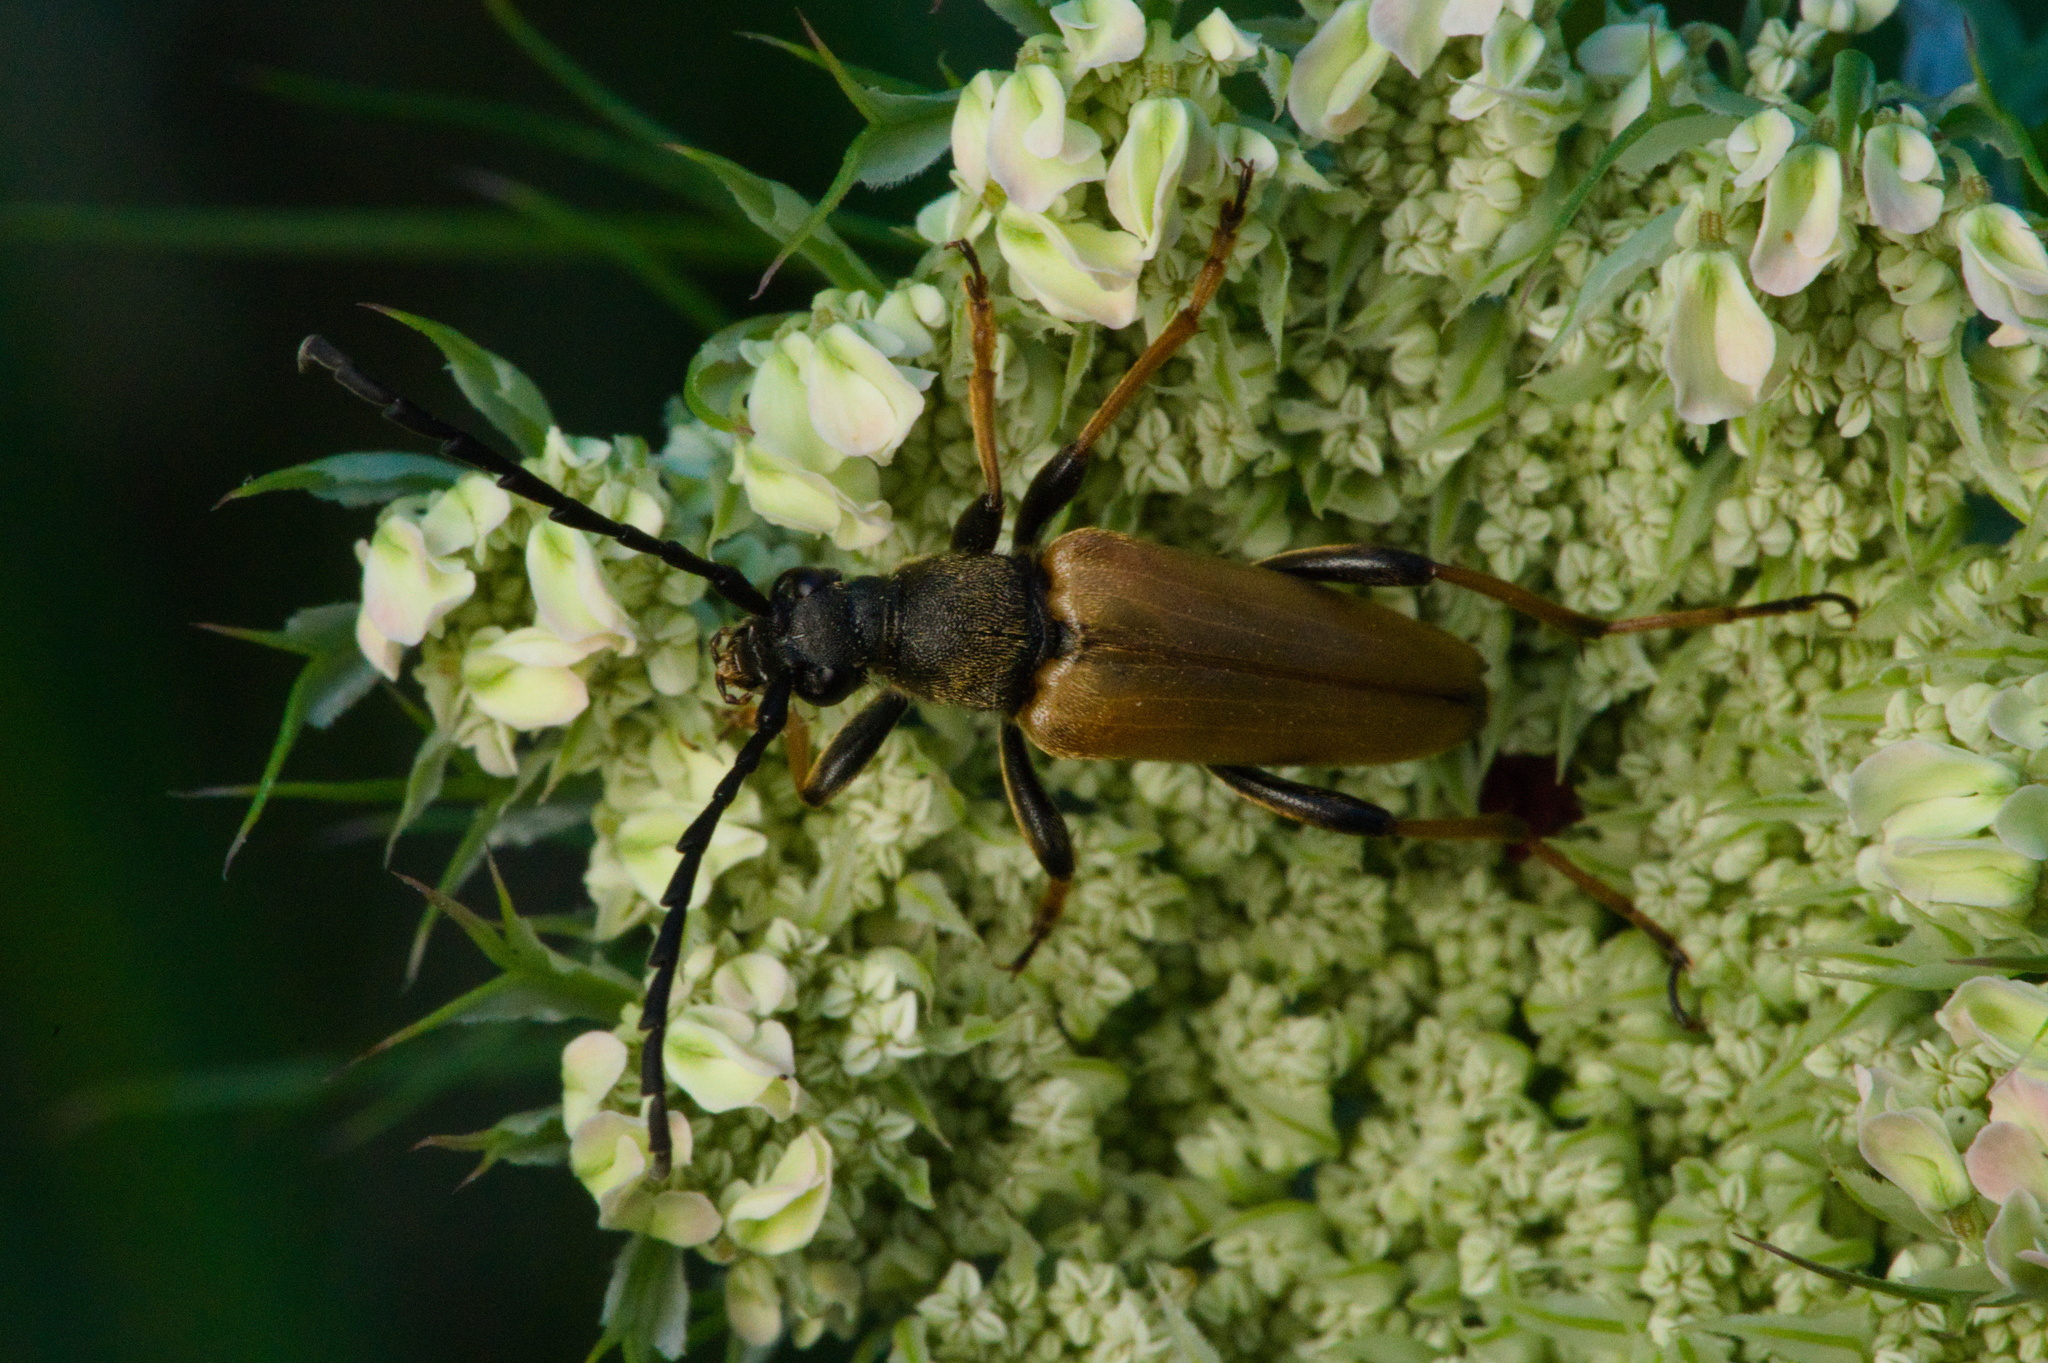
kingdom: Animalia
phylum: Arthropoda
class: Insecta
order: Coleoptera
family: Cerambycidae
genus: Stictoleptura
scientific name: Stictoleptura rubra
